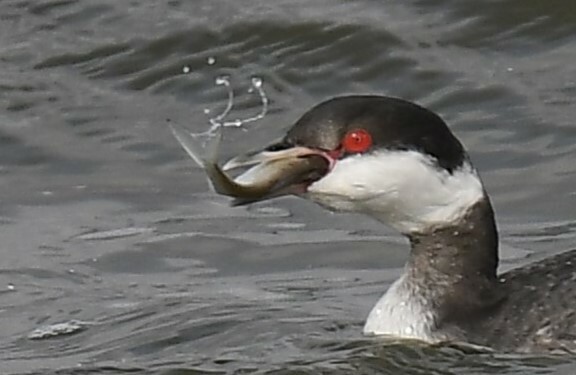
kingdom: Animalia
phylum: Chordata
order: Clupeiformes
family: Clupeidae
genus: Dorosoma
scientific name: Dorosoma cepedianum
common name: Gizzard shad
